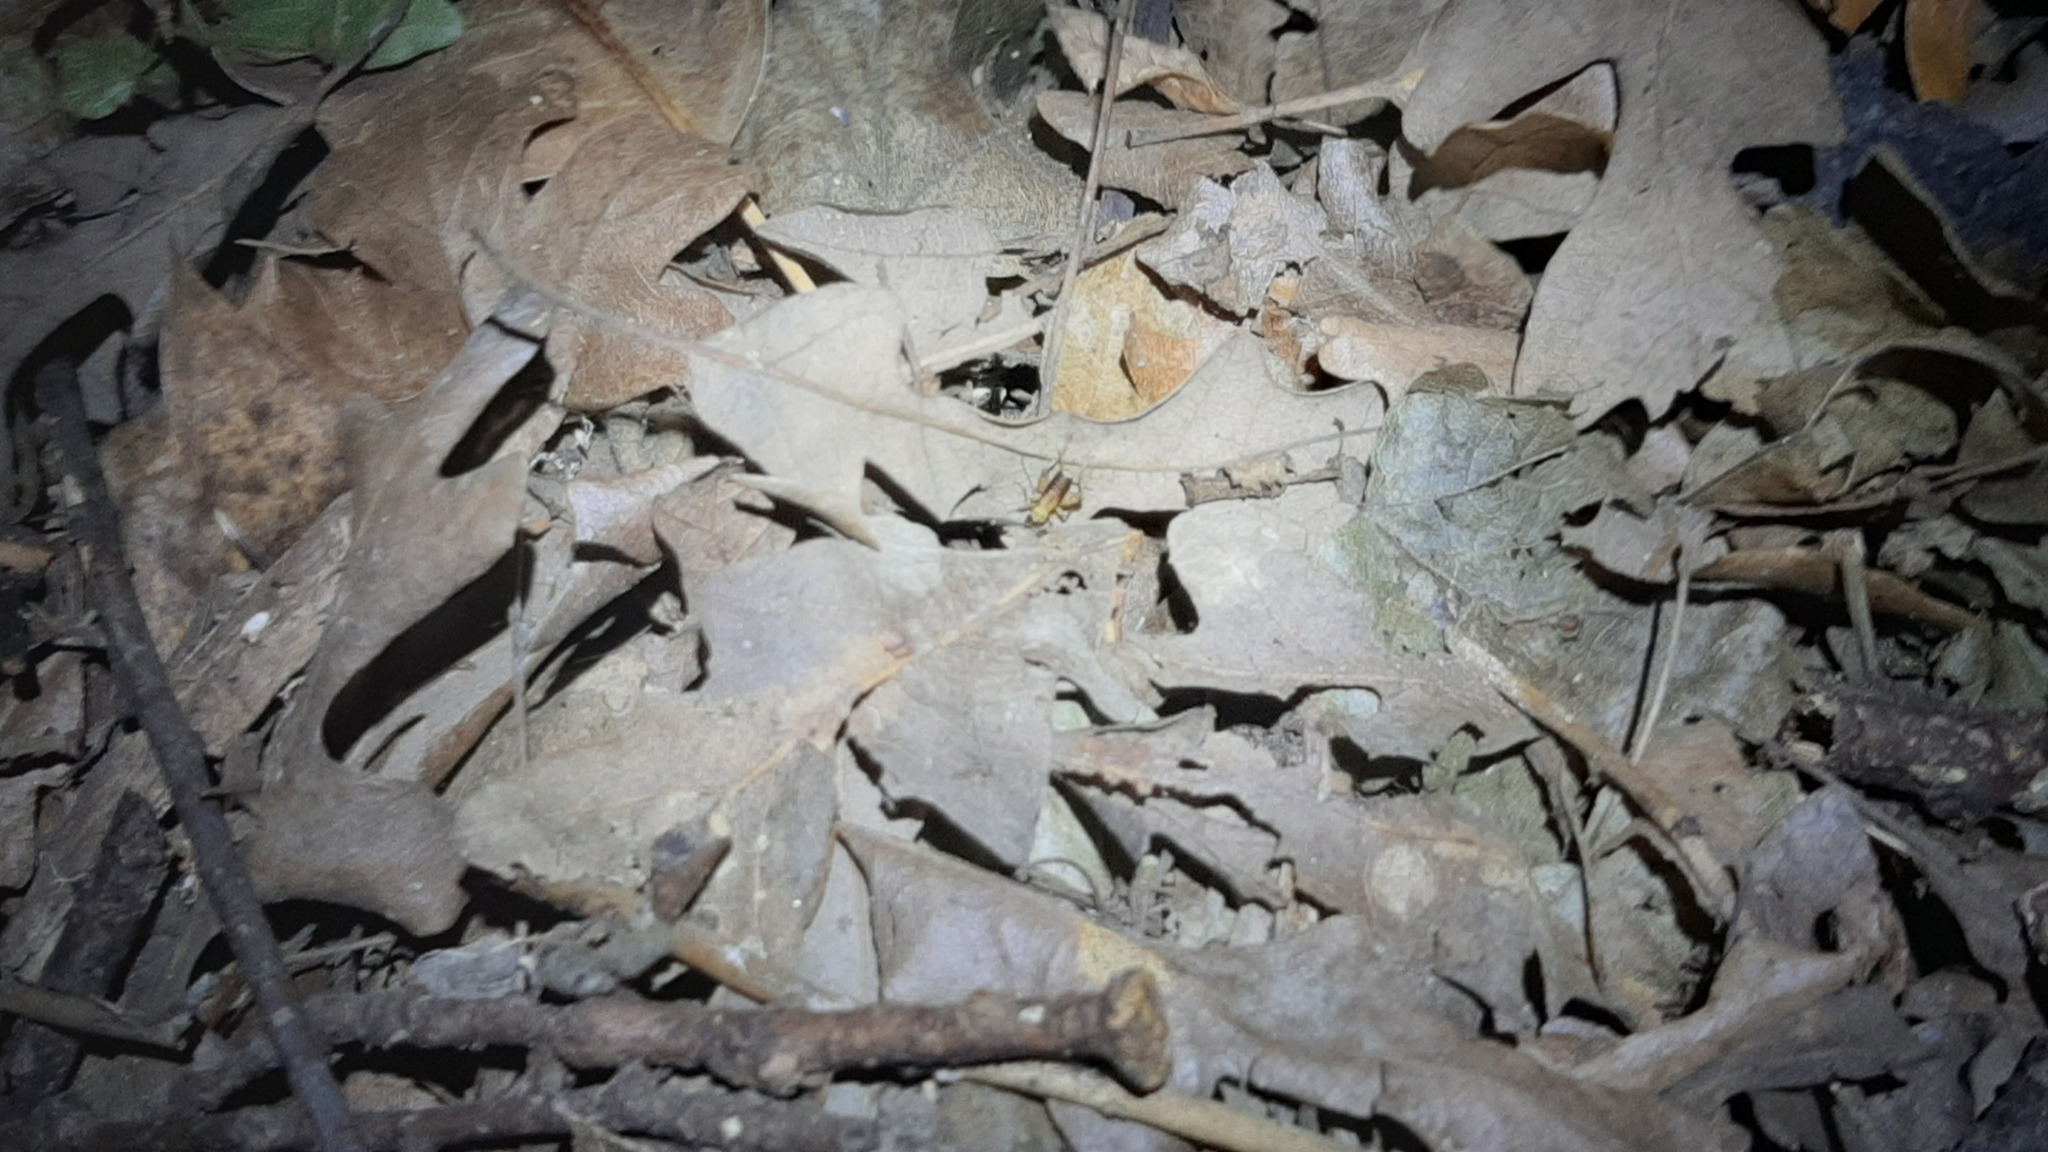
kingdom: Animalia
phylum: Arthropoda
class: Insecta
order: Orthoptera
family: Trigonidiidae
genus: Nemobius
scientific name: Nemobius sylvestris
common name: Wood-cricket
